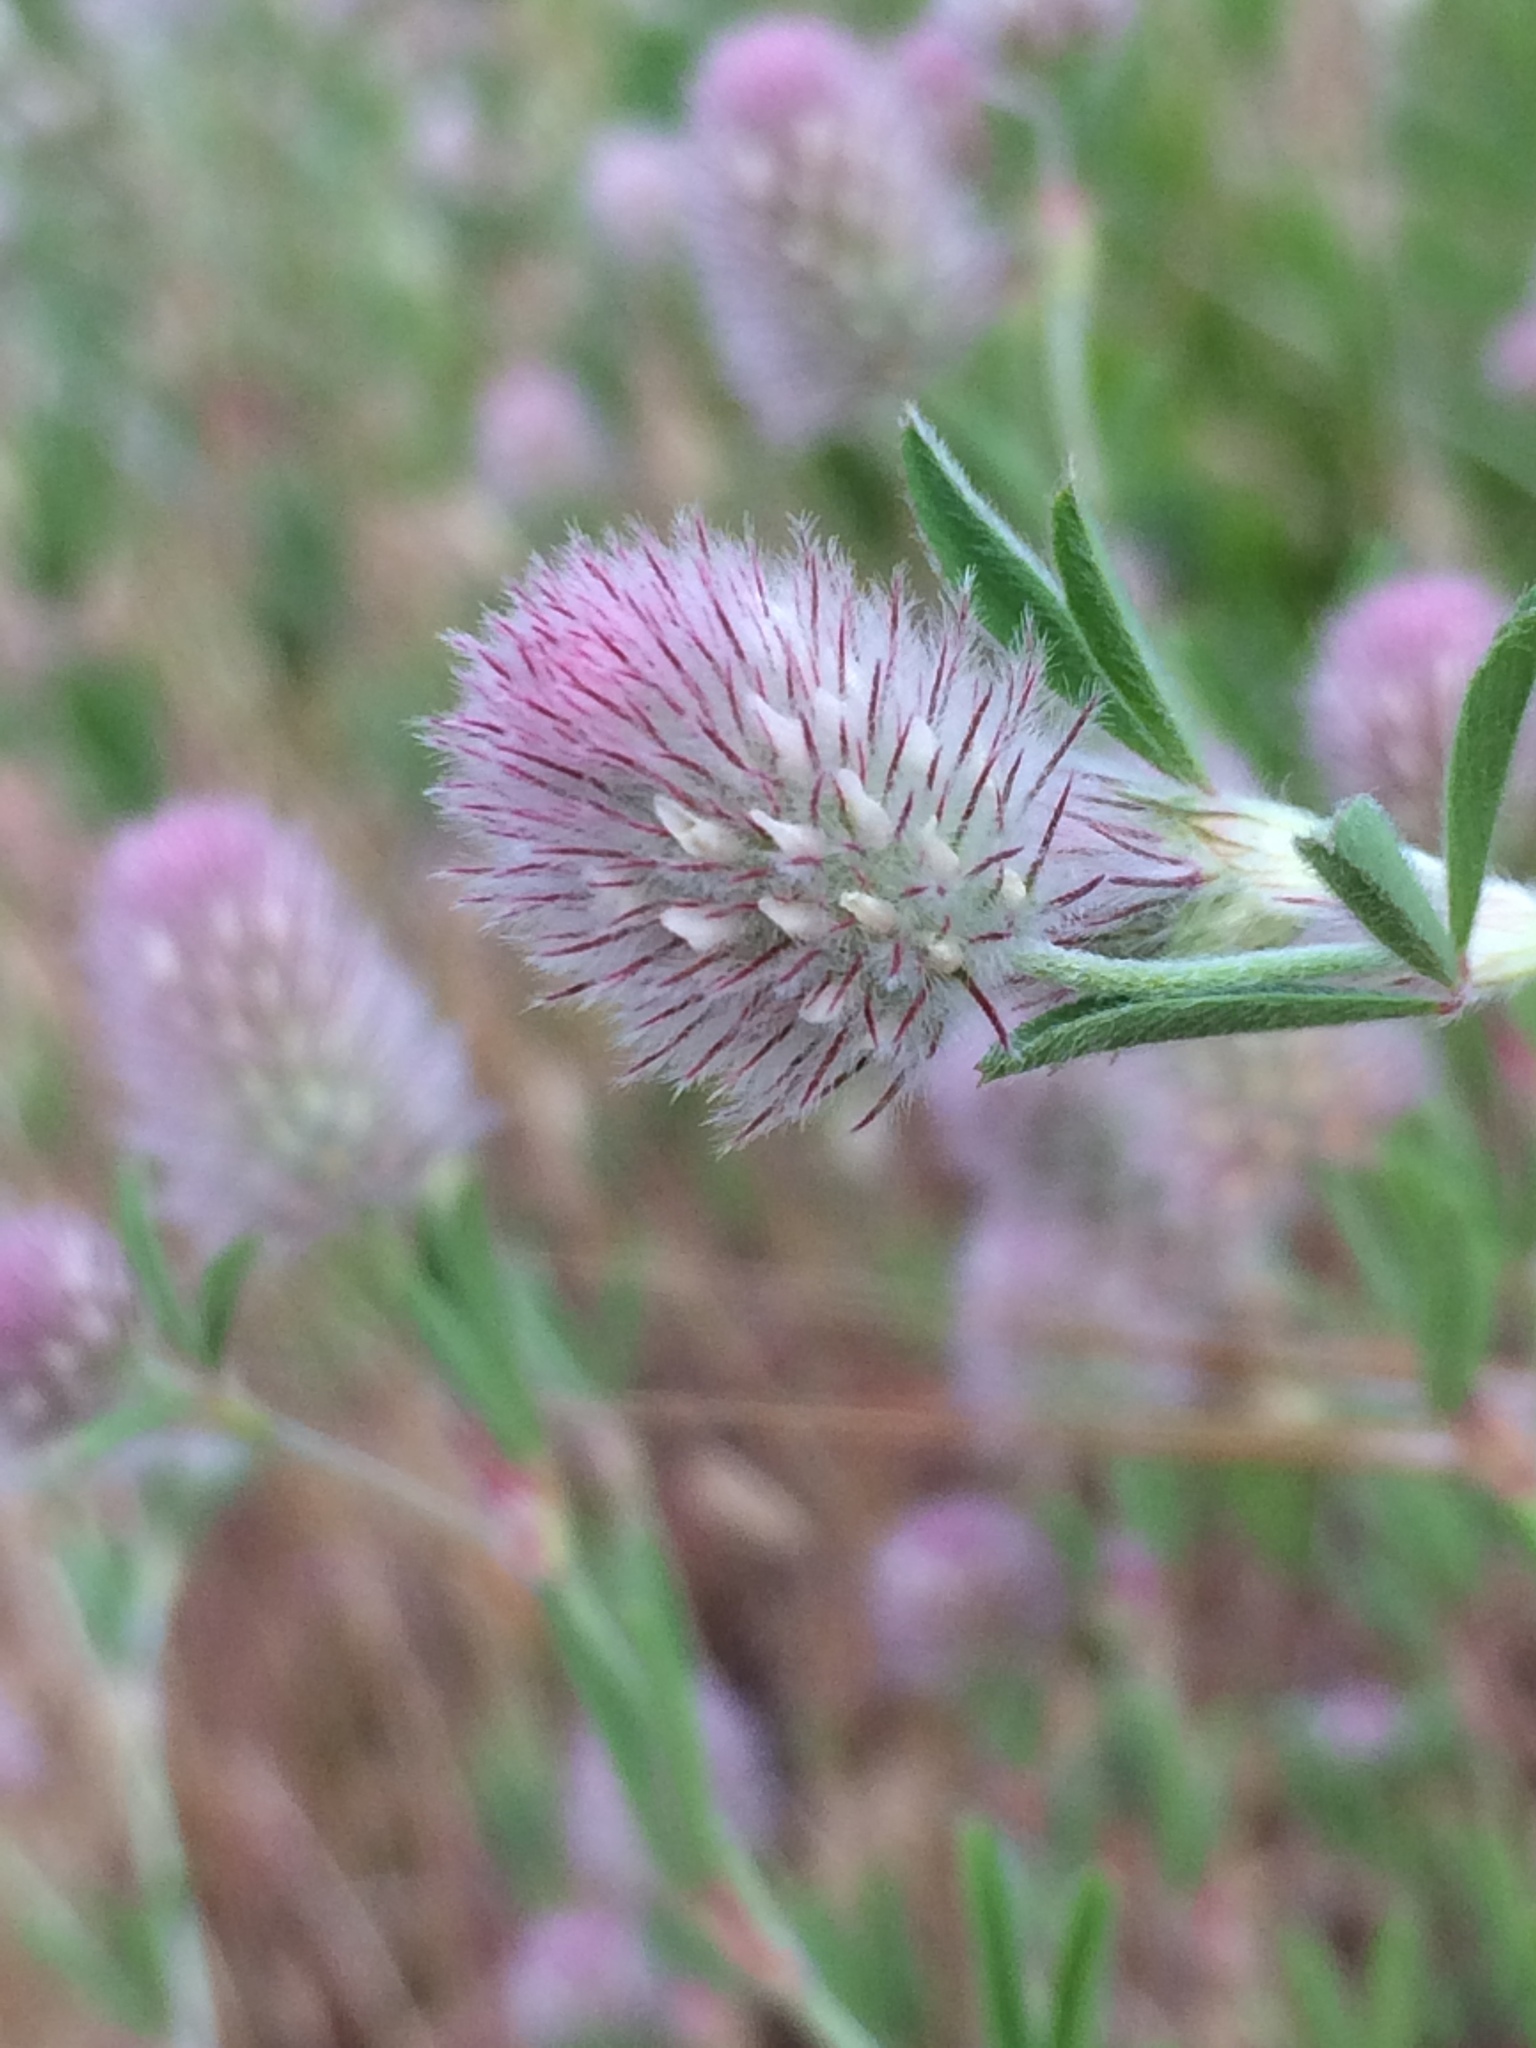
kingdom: Plantae
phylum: Tracheophyta
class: Magnoliopsida
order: Fabales
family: Fabaceae
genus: Trifolium
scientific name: Trifolium arvense
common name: Hare's-foot clover
